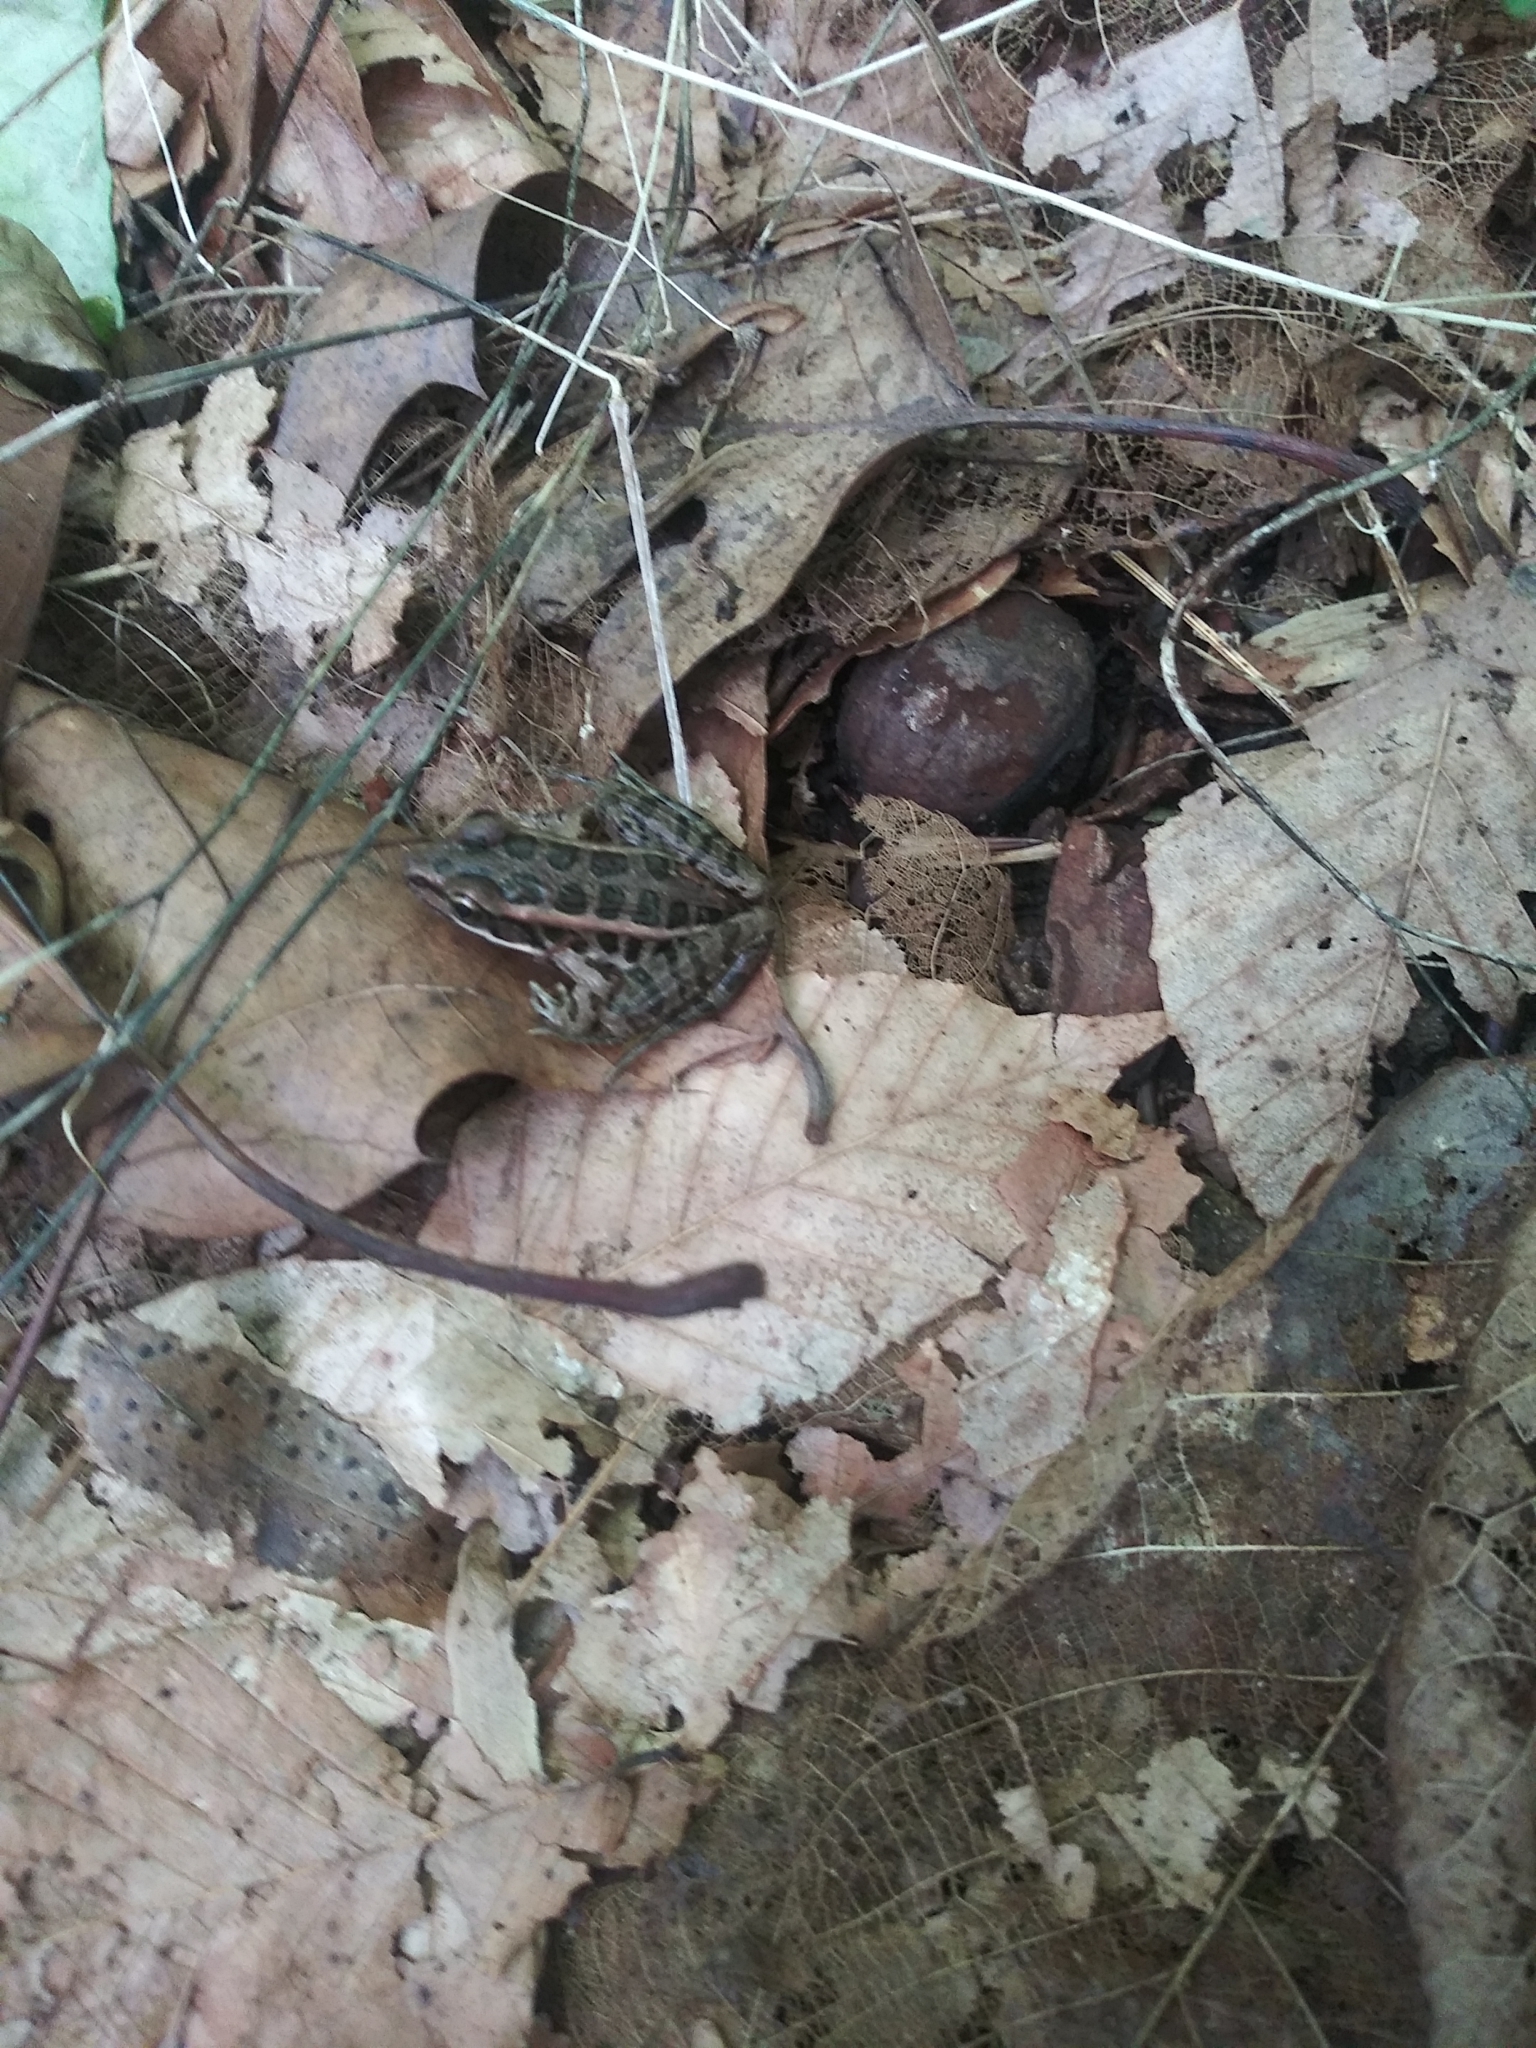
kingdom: Animalia
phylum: Chordata
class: Amphibia
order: Anura
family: Ranidae
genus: Lithobates
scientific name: Lithobates palustris
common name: Pickerel frog
